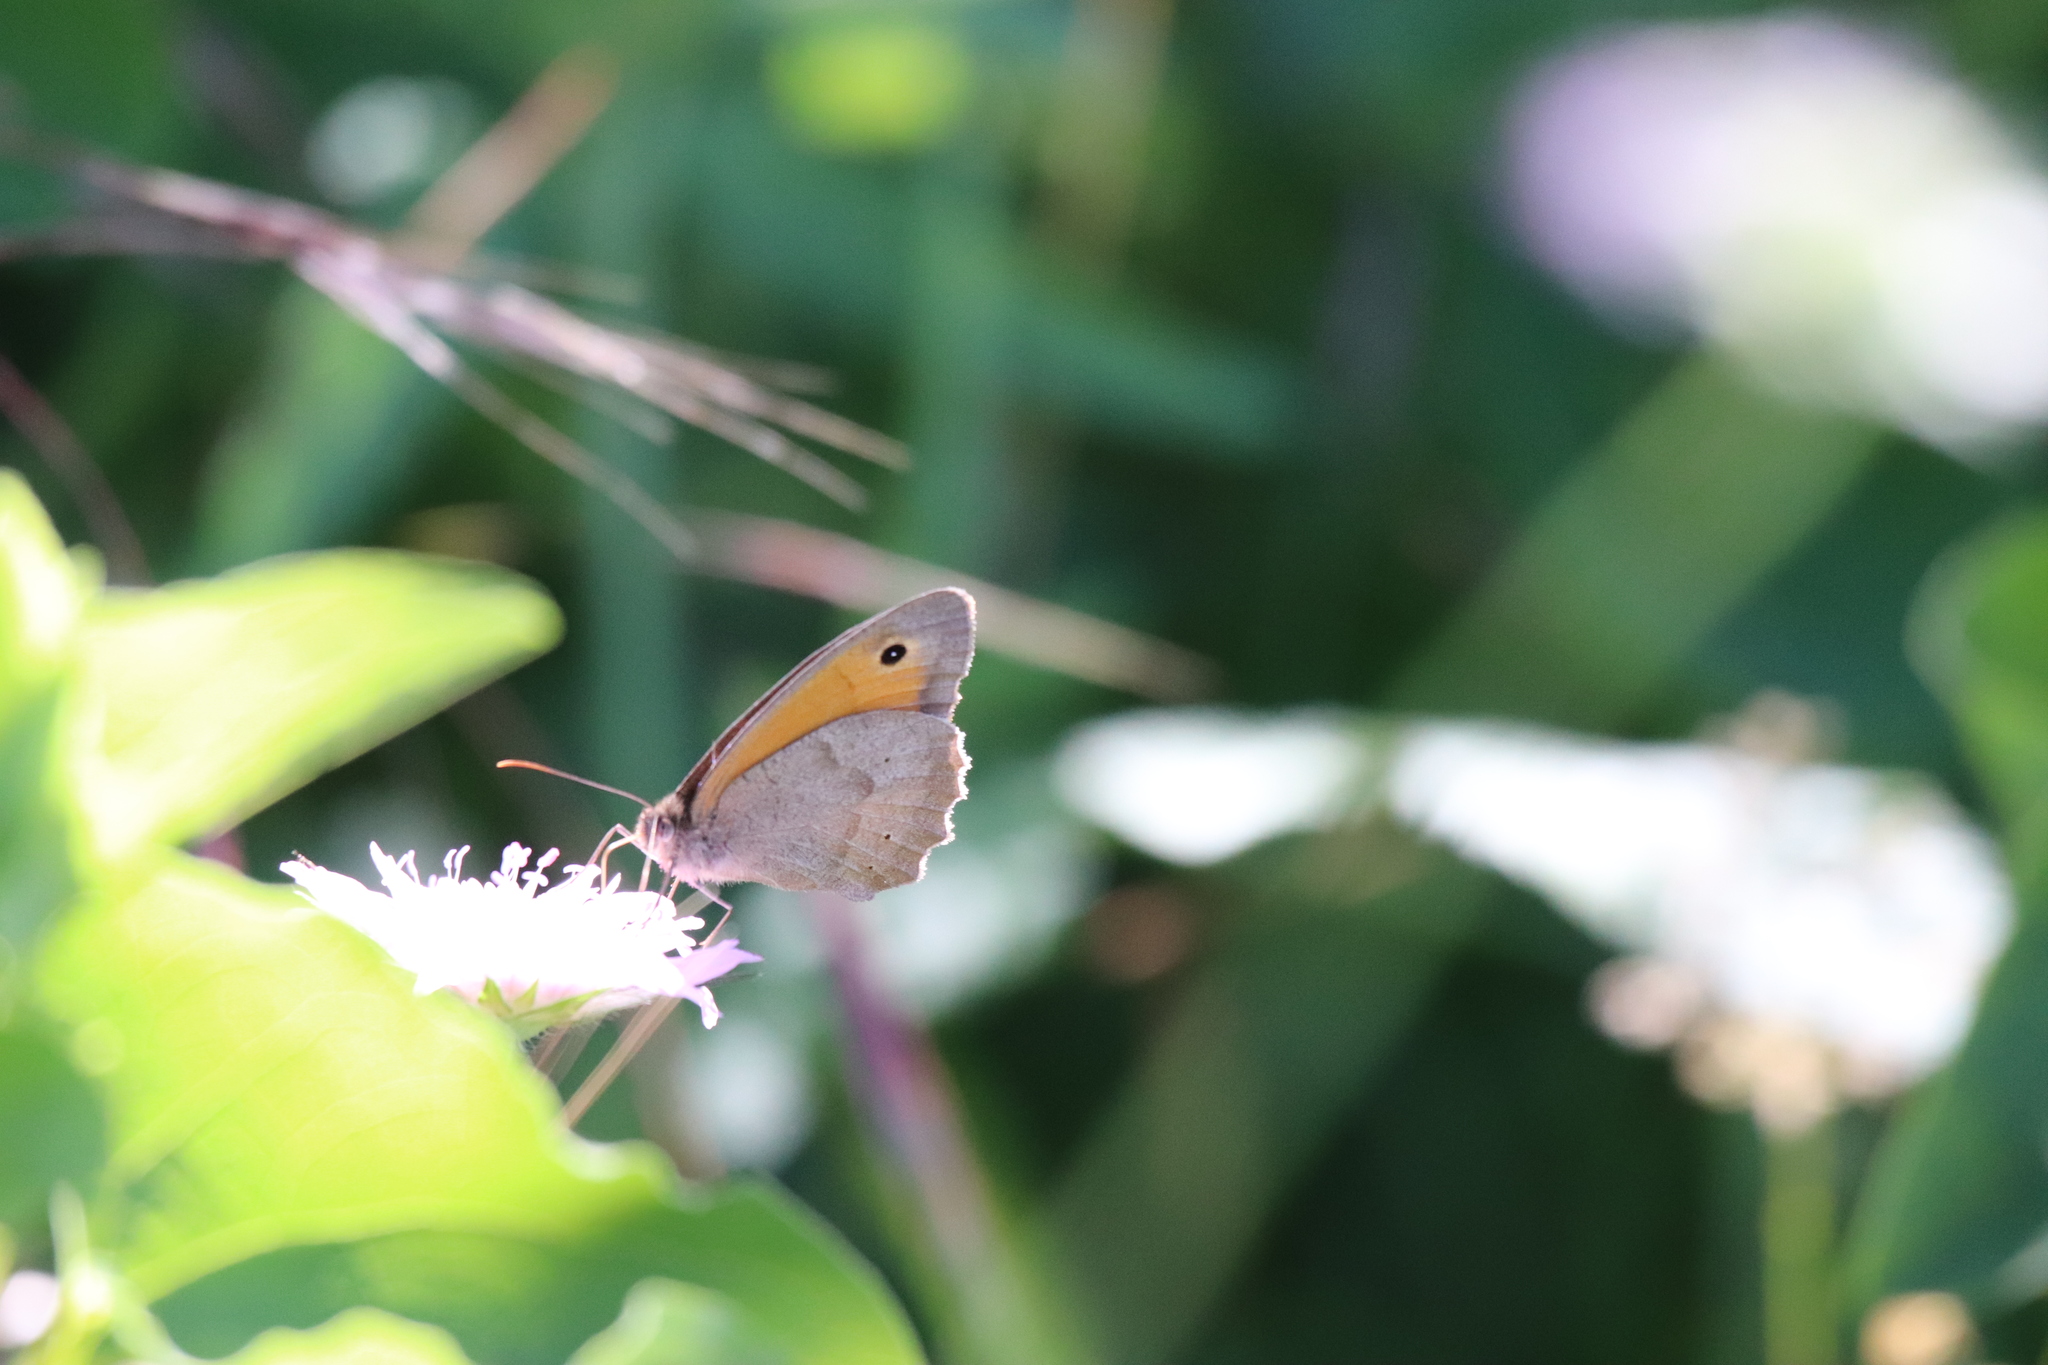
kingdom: Animalia
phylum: Arthropoda
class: Insecta
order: Lepidoptera
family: Nymphalidae
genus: Maniola
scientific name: Maniola jurtina
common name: Meadow brown
